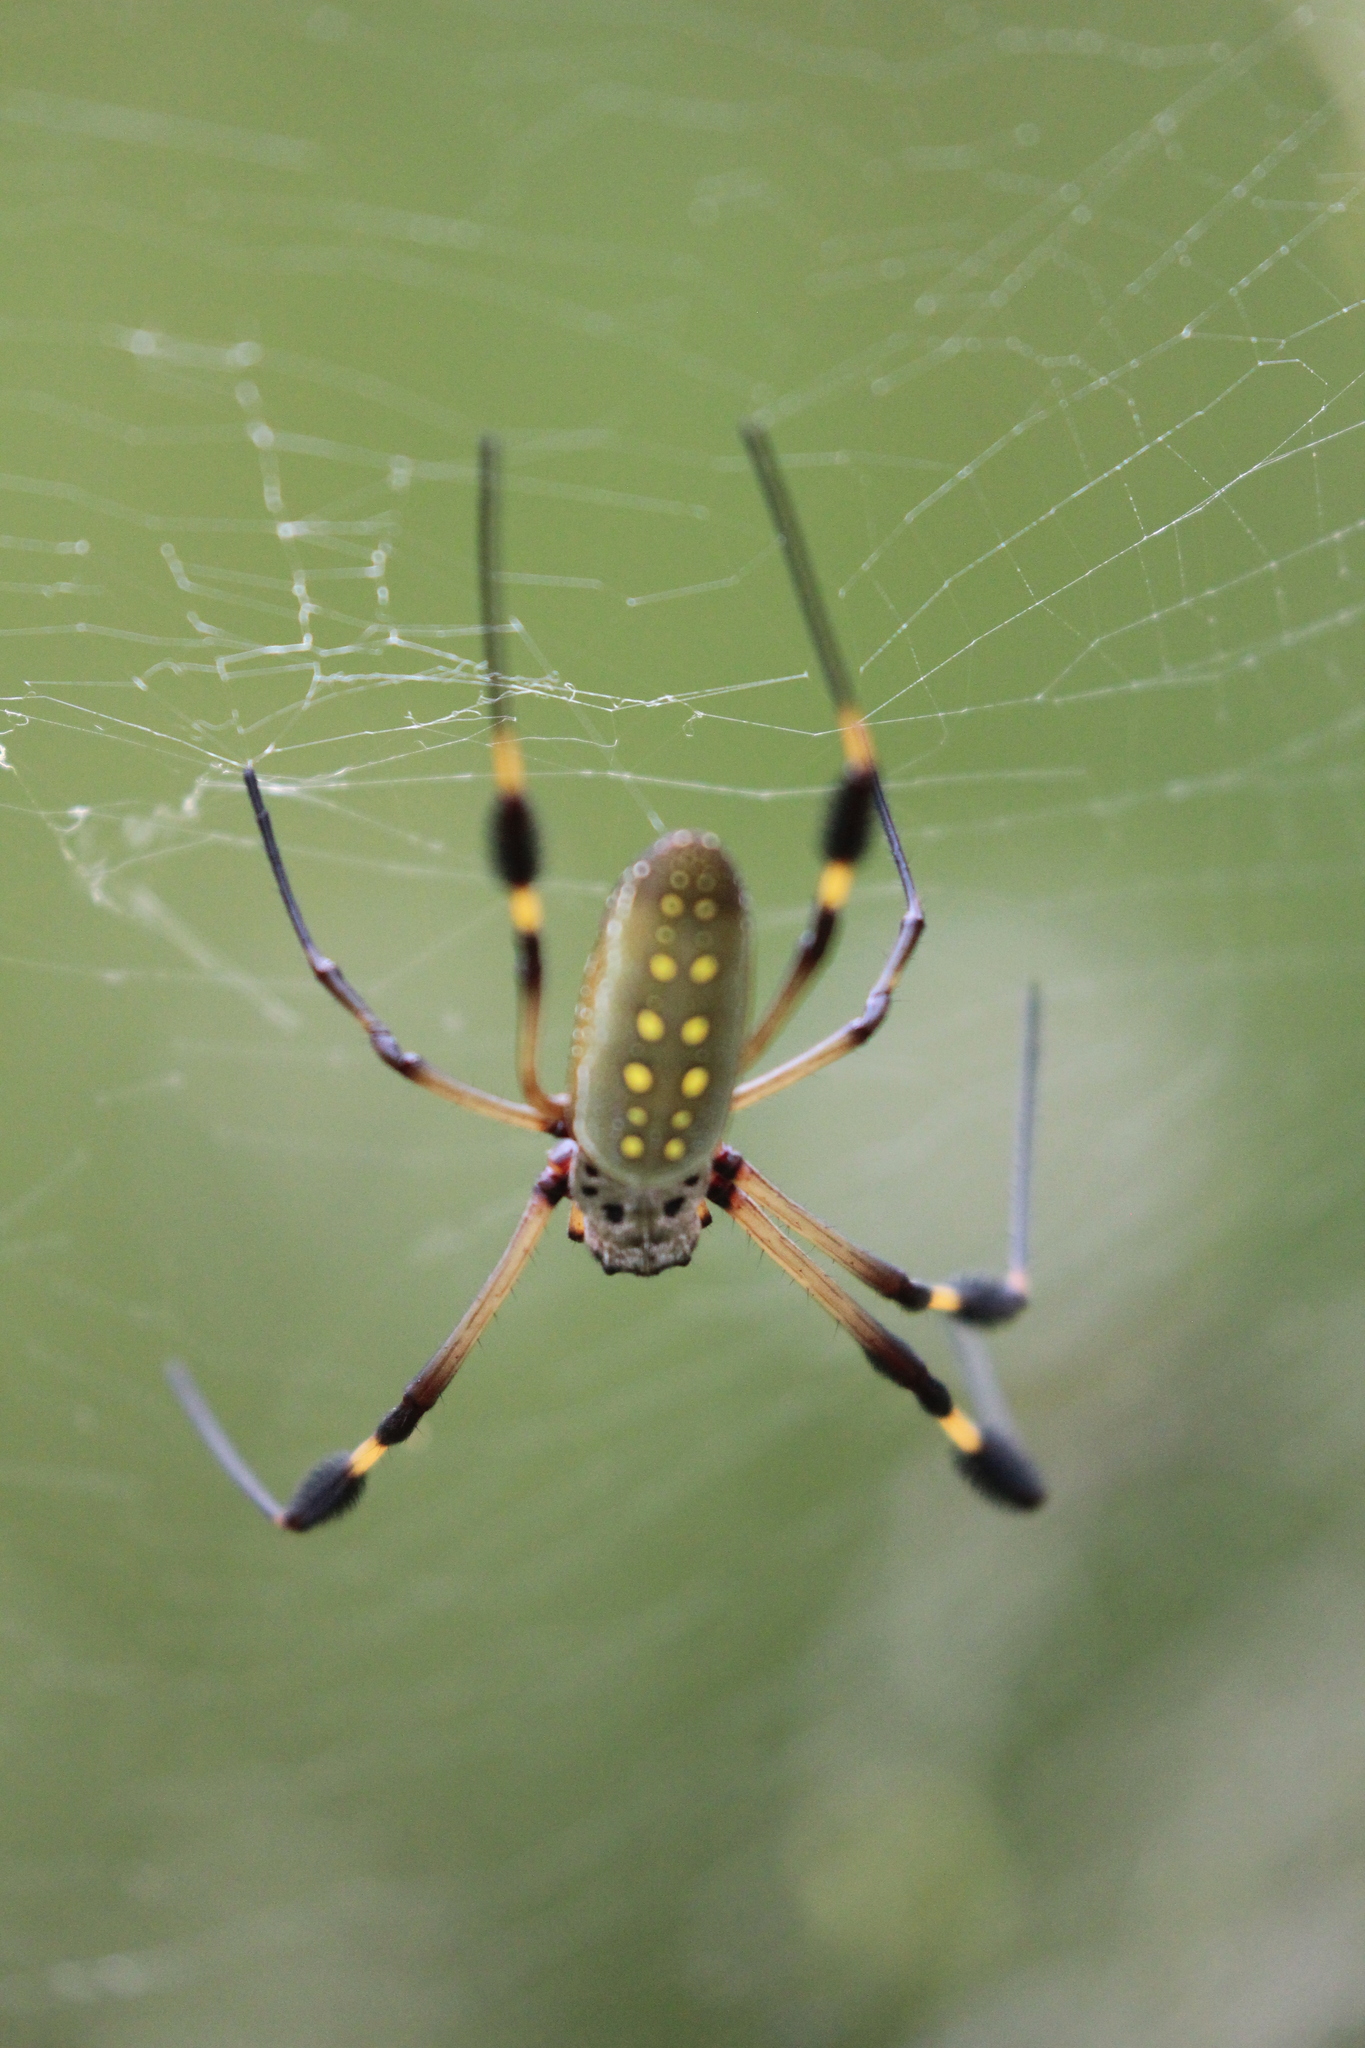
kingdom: Animalia
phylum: Arthropoda
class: Arachnida
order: Araneae
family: Araneidae
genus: Trichonephila
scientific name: Trichonephila clavipes
